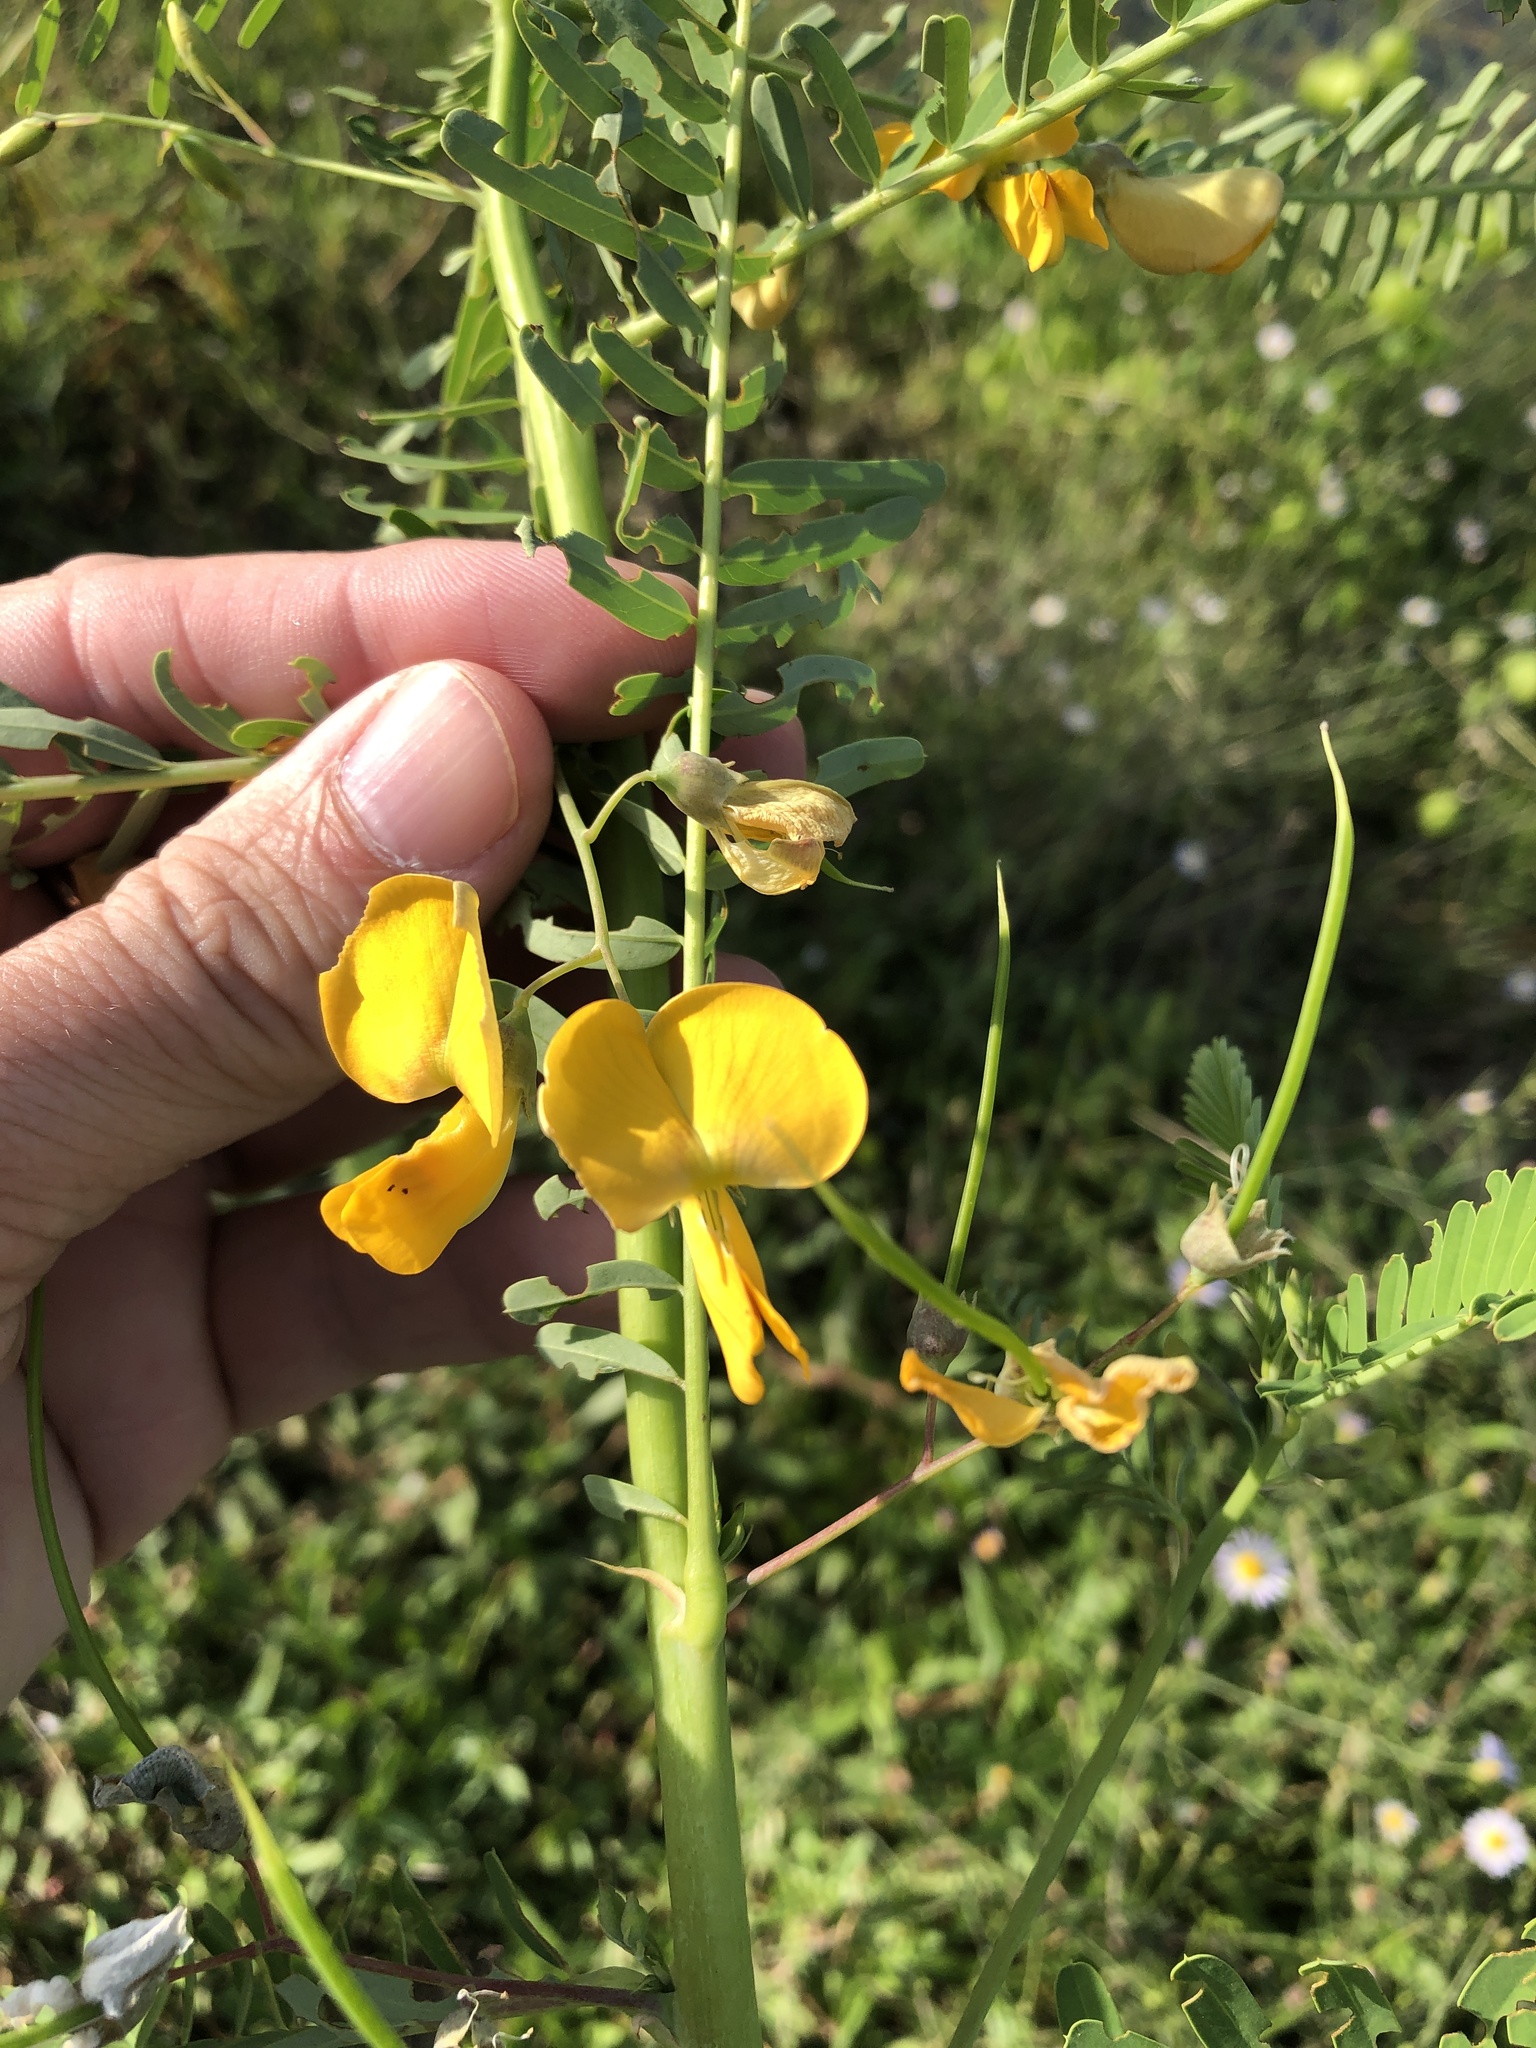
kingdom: Plantae
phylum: Tracheophyta
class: Magnoliopsida
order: Fabales
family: Fabaceae
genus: Sesbania
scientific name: Sesbania herbacea
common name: Bigpod sesbania
